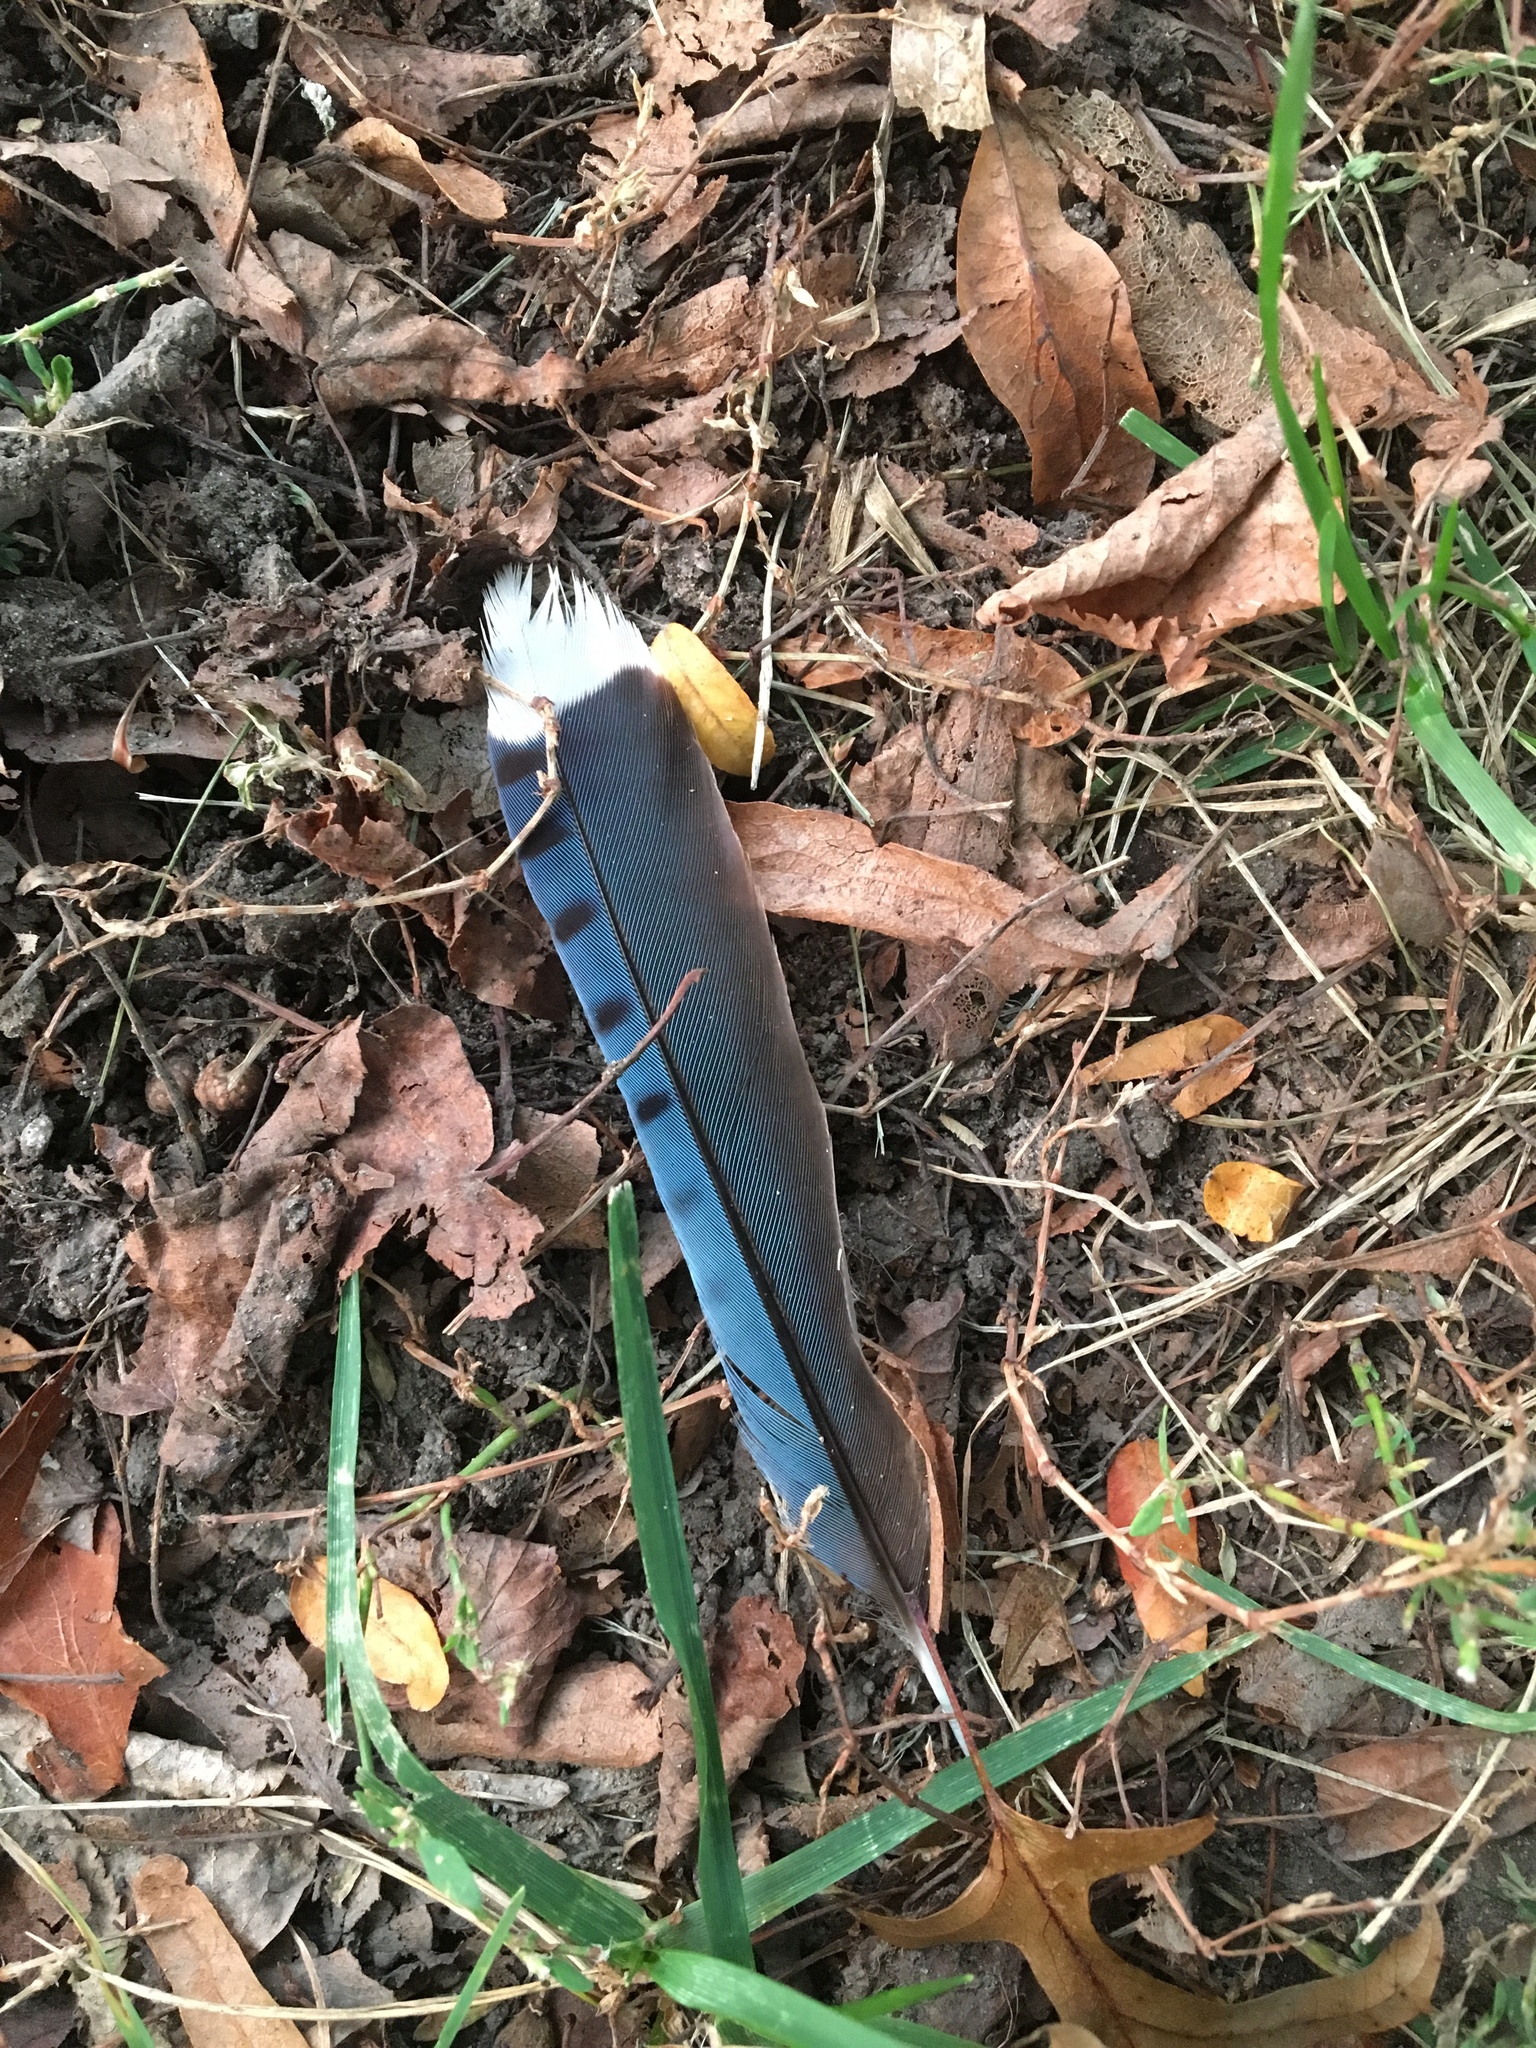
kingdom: Animalia
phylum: Chordata
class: Aves
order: Passeriformes
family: Corvidae
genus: Cyanocitta
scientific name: Cyanocitta cristata
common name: Blue jay
